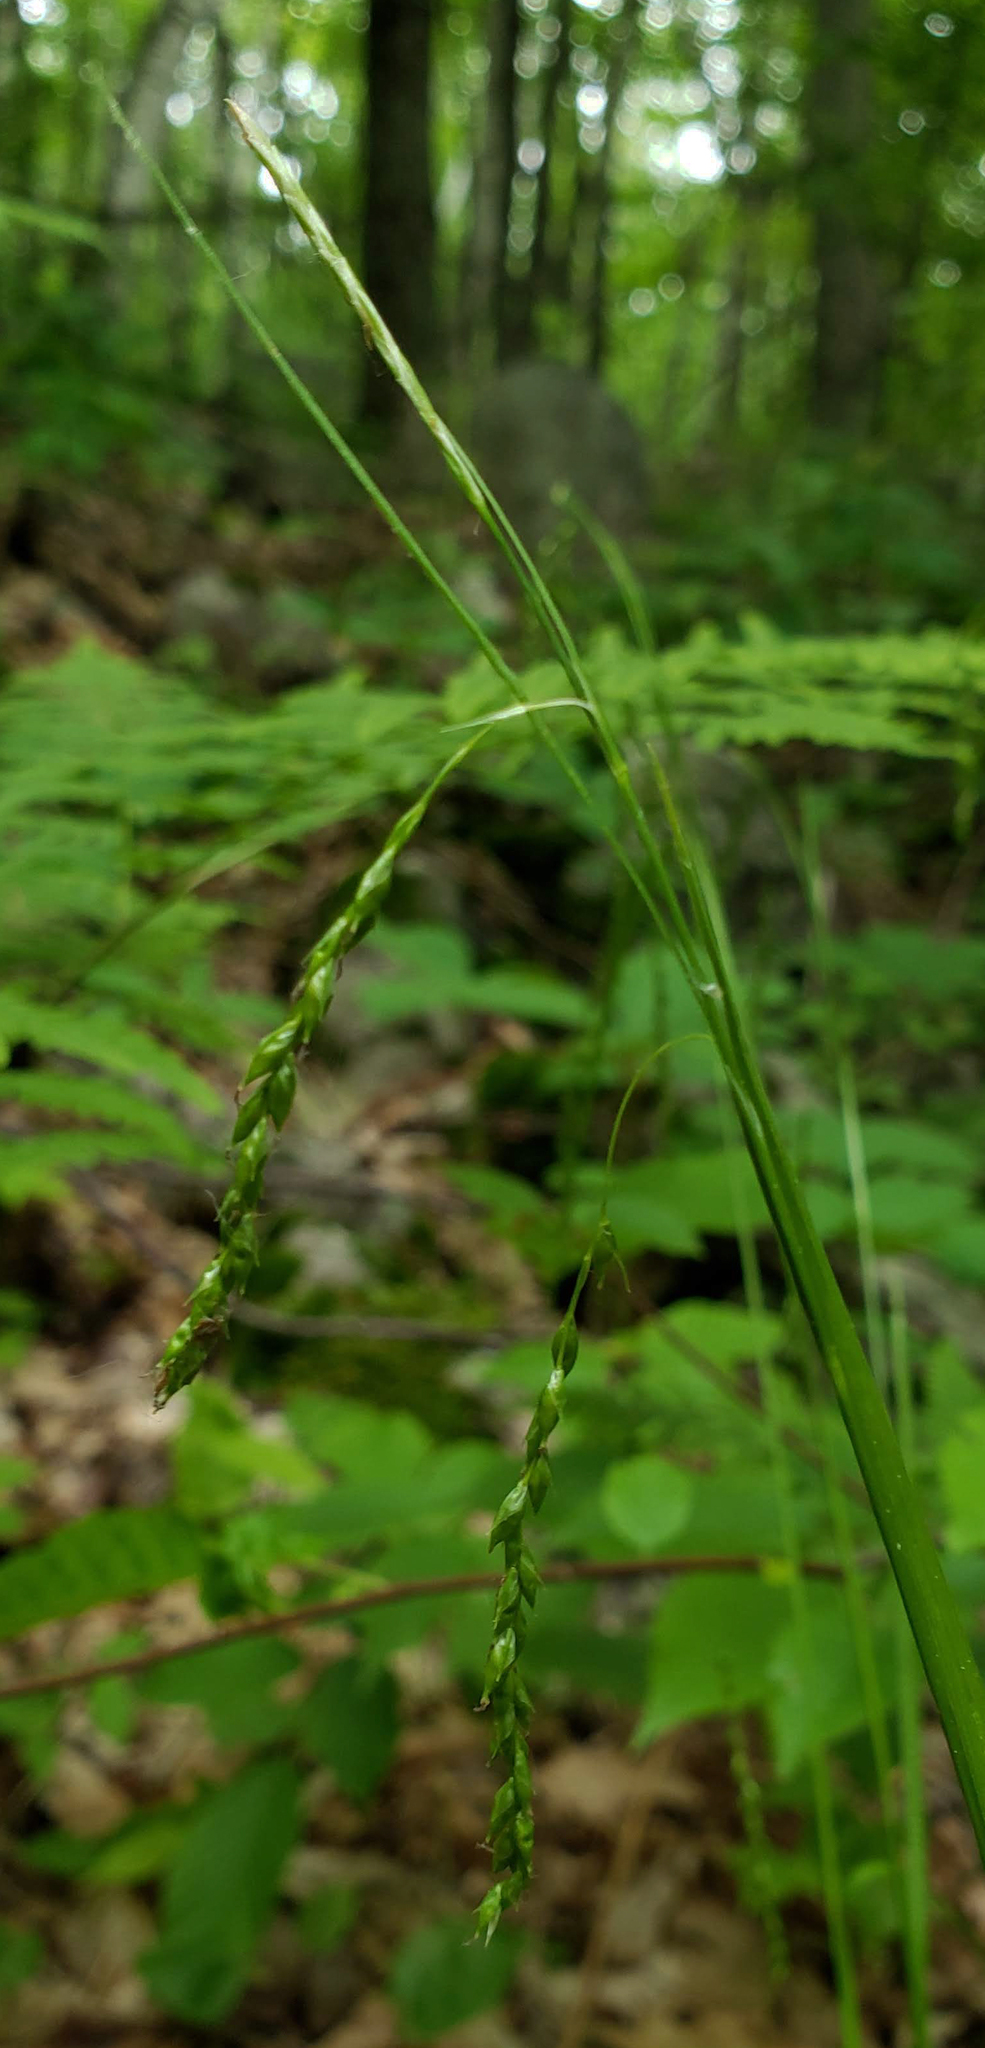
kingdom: Plantae
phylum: Tracheophyta
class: Liliopsida
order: Poales
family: Cyperaceae
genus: Carex
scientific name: Carex arctata
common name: Black sedge
